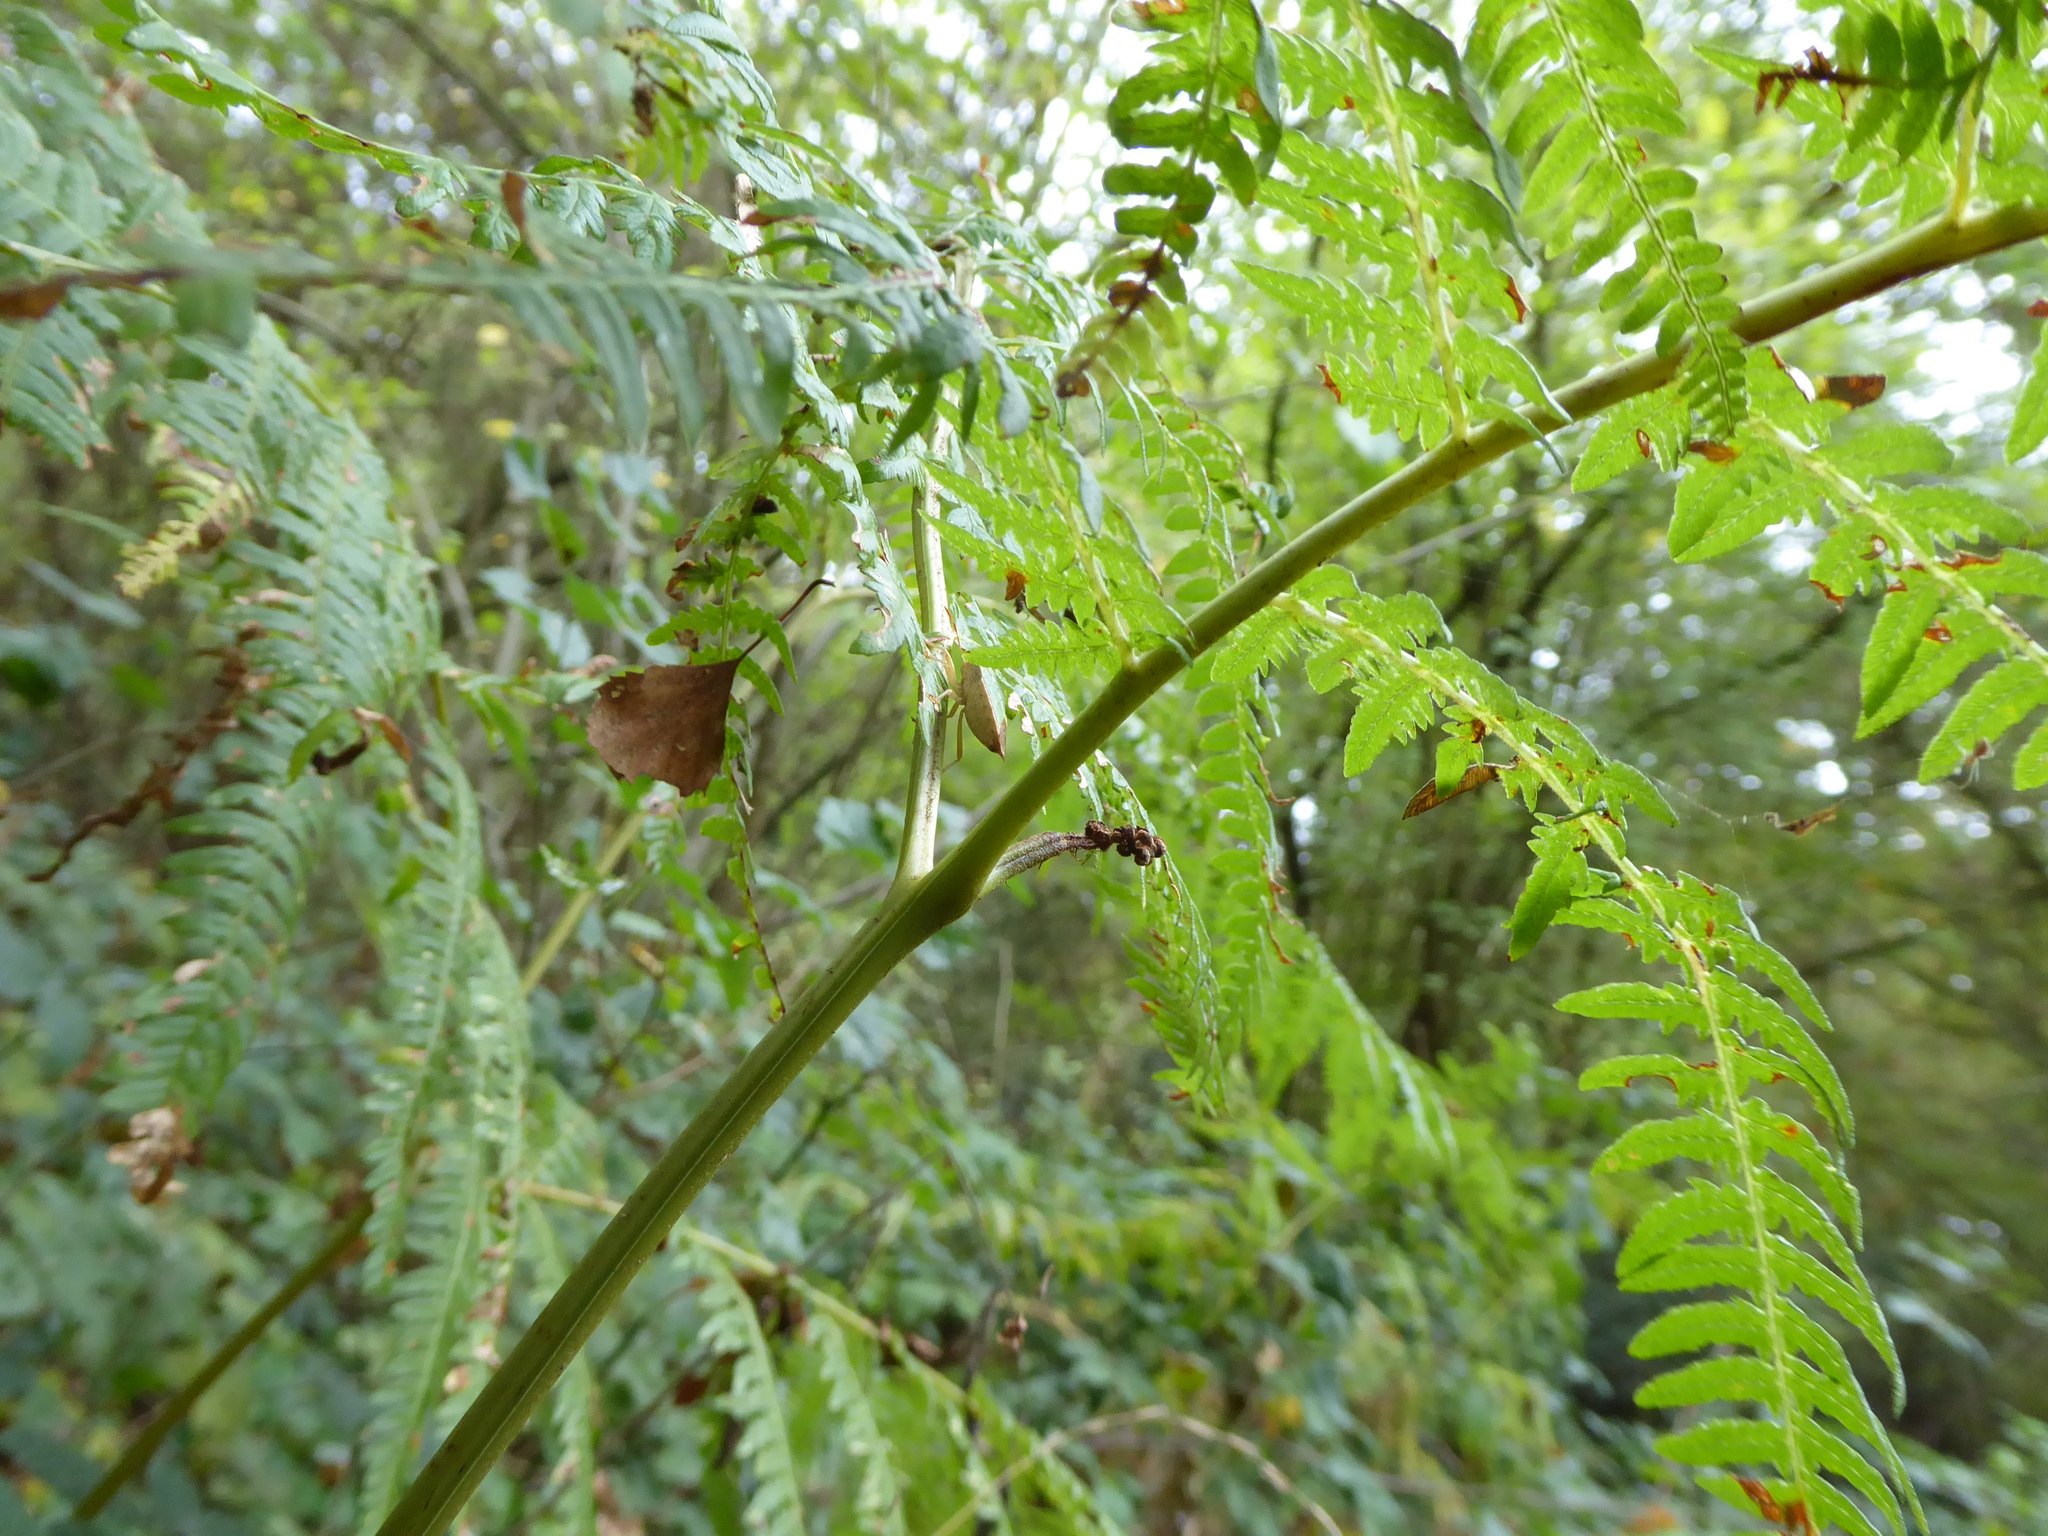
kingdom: Plantae
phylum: Tracheophyta
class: Polypodiopsida
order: Polypodiales
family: Dennstaedtiaceae
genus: Pteridium
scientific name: Pteridium aquilinum
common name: Bracken
